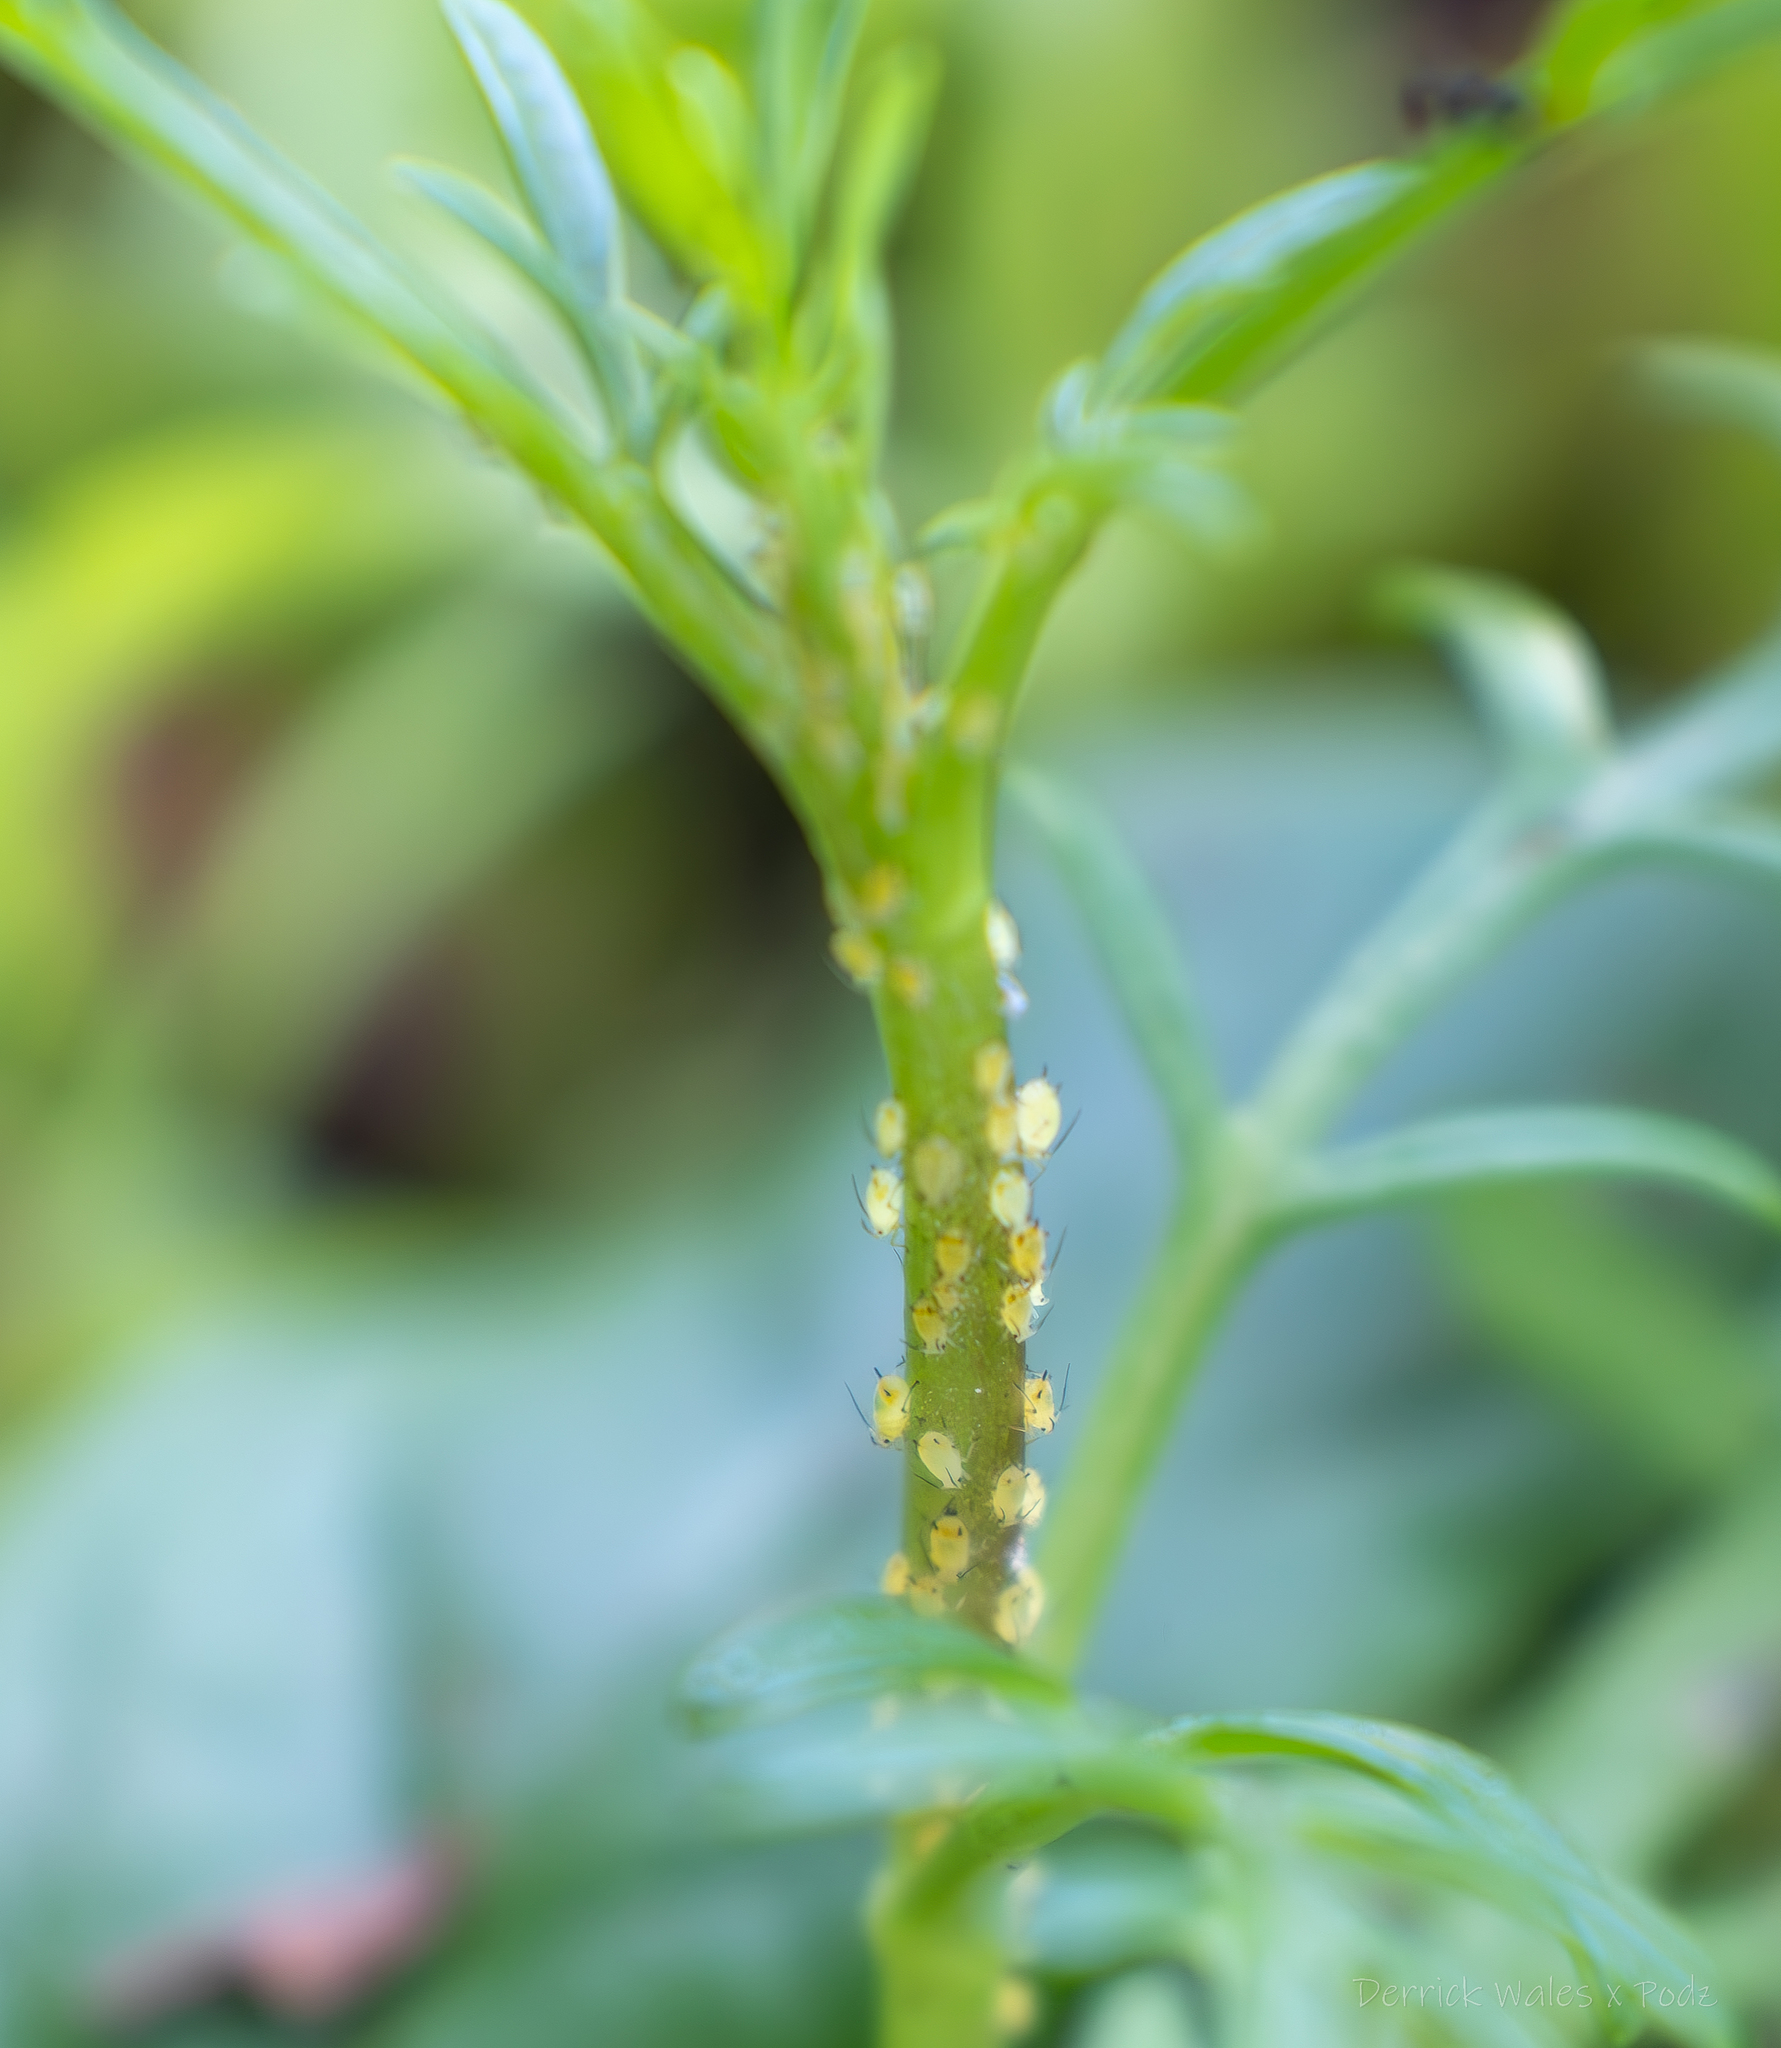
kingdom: Animalia
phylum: Arthropoda
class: Insecta
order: Hemiptera
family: Aphididae
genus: Aphis
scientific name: Aphis nerii
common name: Oleander aphid
